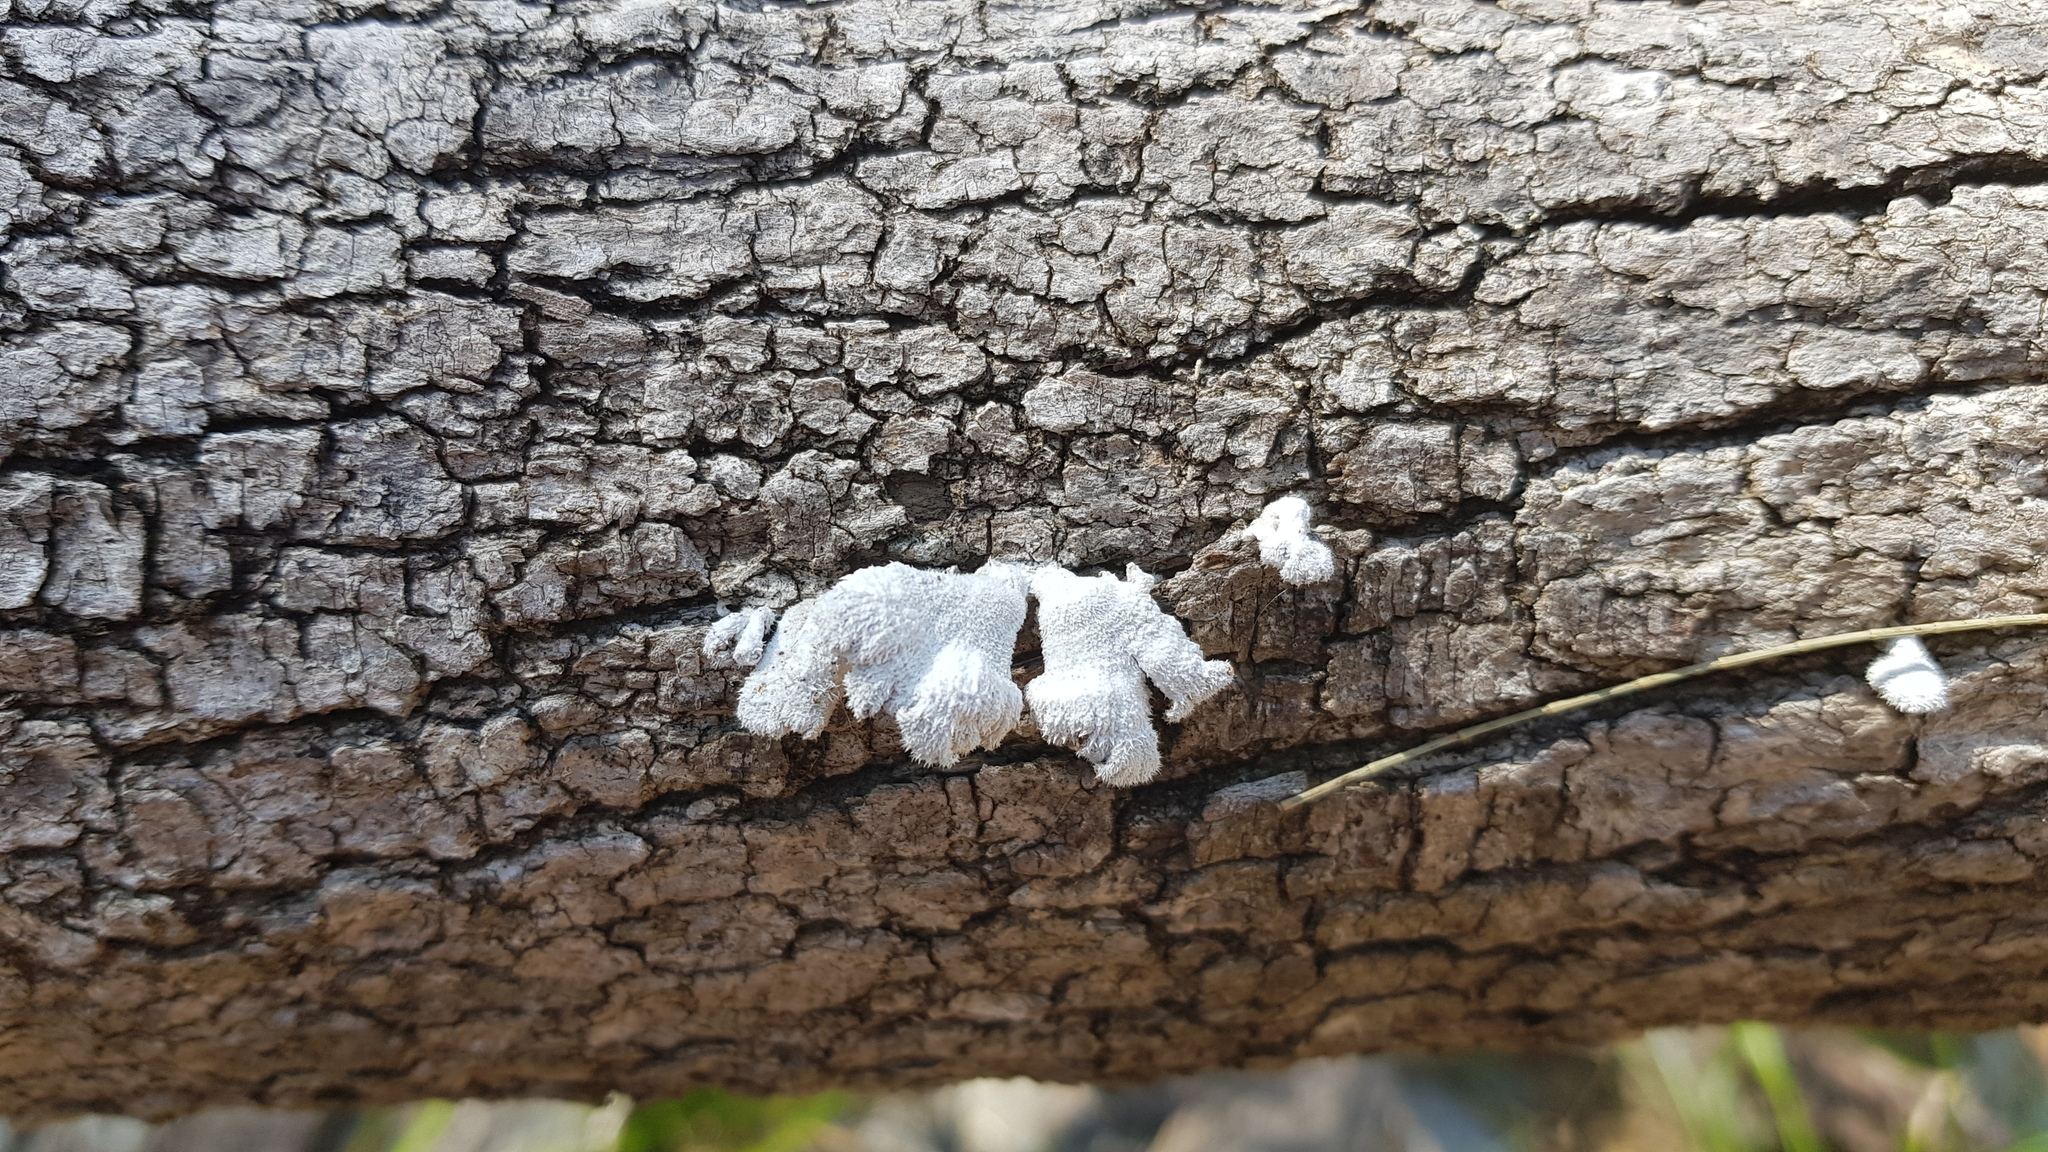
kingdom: Fungi
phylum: Basidiomycota
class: Agaricomycetes
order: Agaricales
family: Schizophyllaceae
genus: Schizophyllum
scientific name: Schizophyllum commune
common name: Common porecrust
